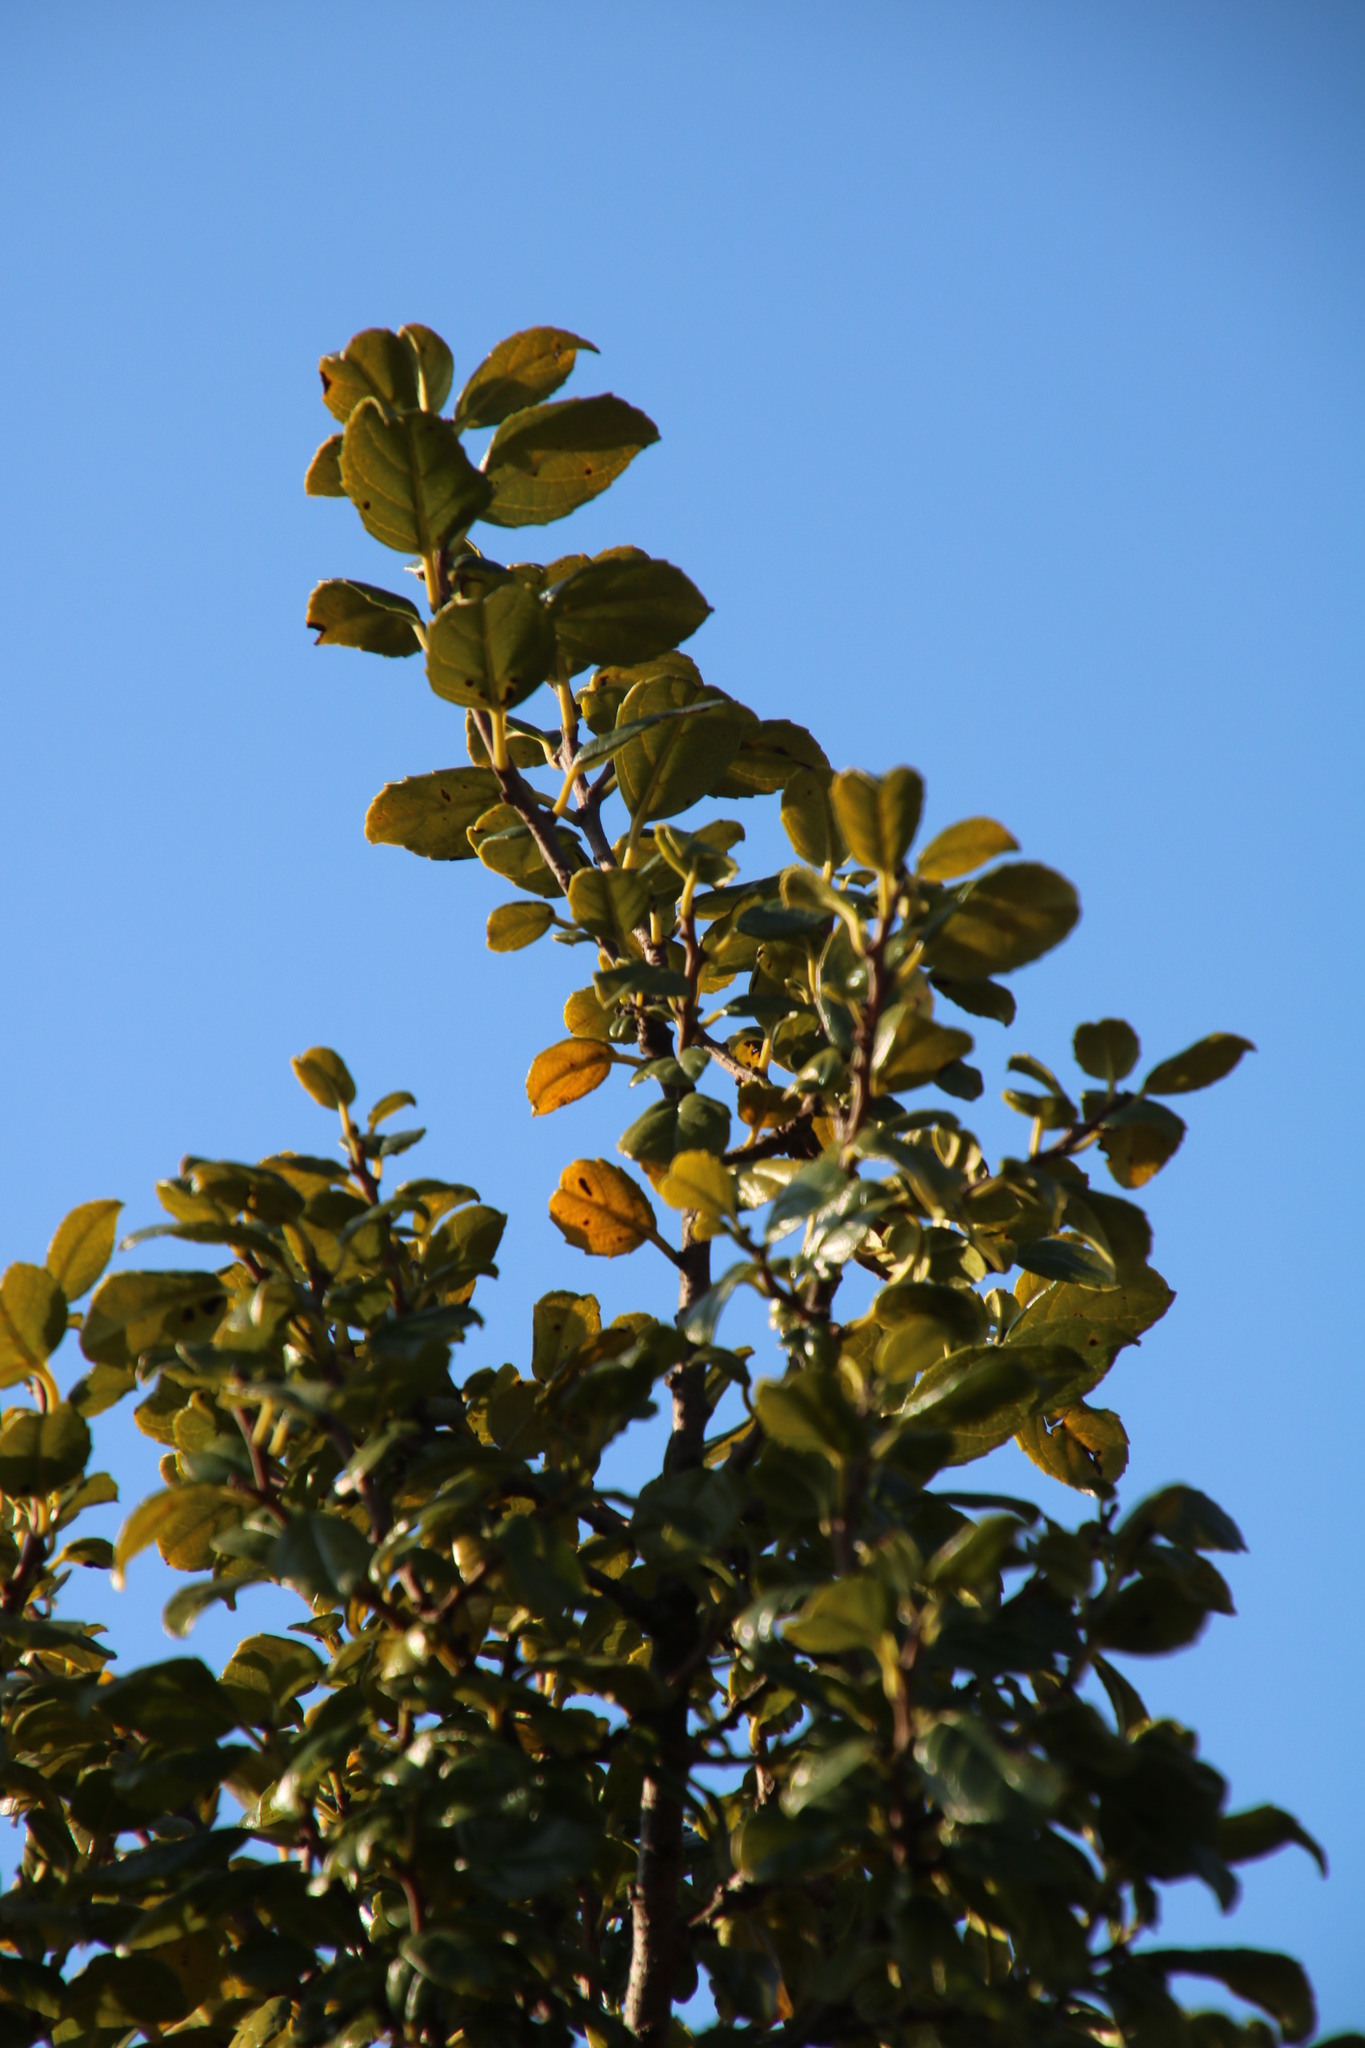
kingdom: Plantae
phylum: Tracheophyta
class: Magnoliopsida
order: Rosales
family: Rhamnaceae
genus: Rhamnus
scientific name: Rhamnus prinoides
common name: Dogwood
